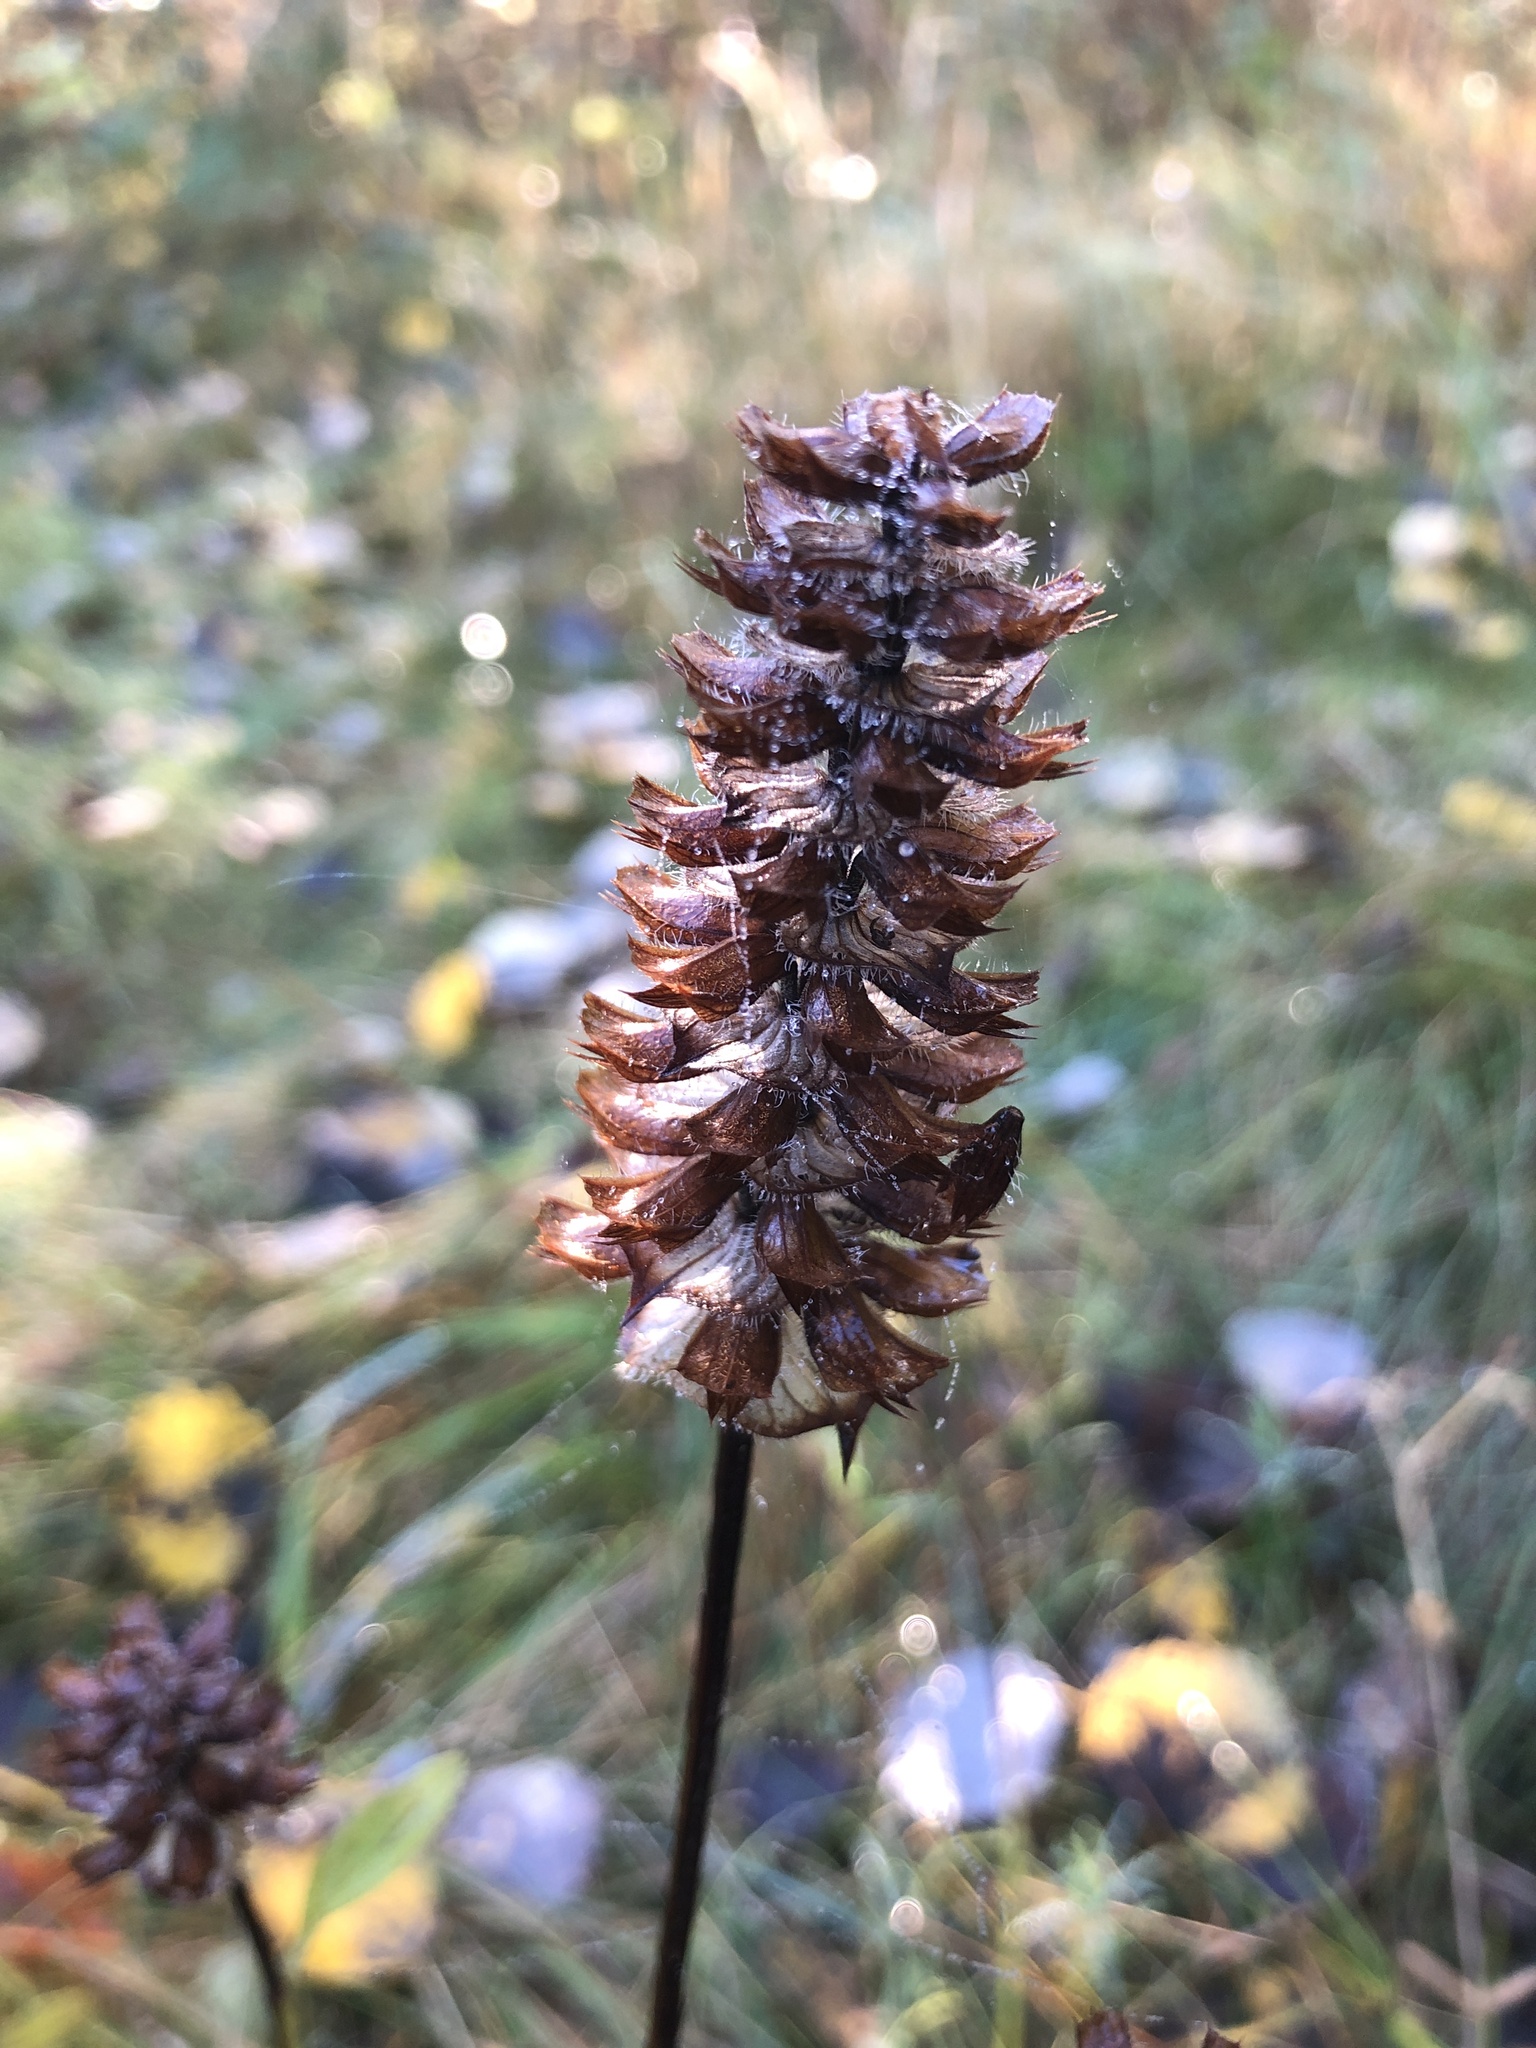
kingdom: Plantae
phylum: Tracheophyta
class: Magnoliopsida
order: Lamiales
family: Lamiaceae
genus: Prunella
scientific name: Prunella vulgaris
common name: Heal-all
